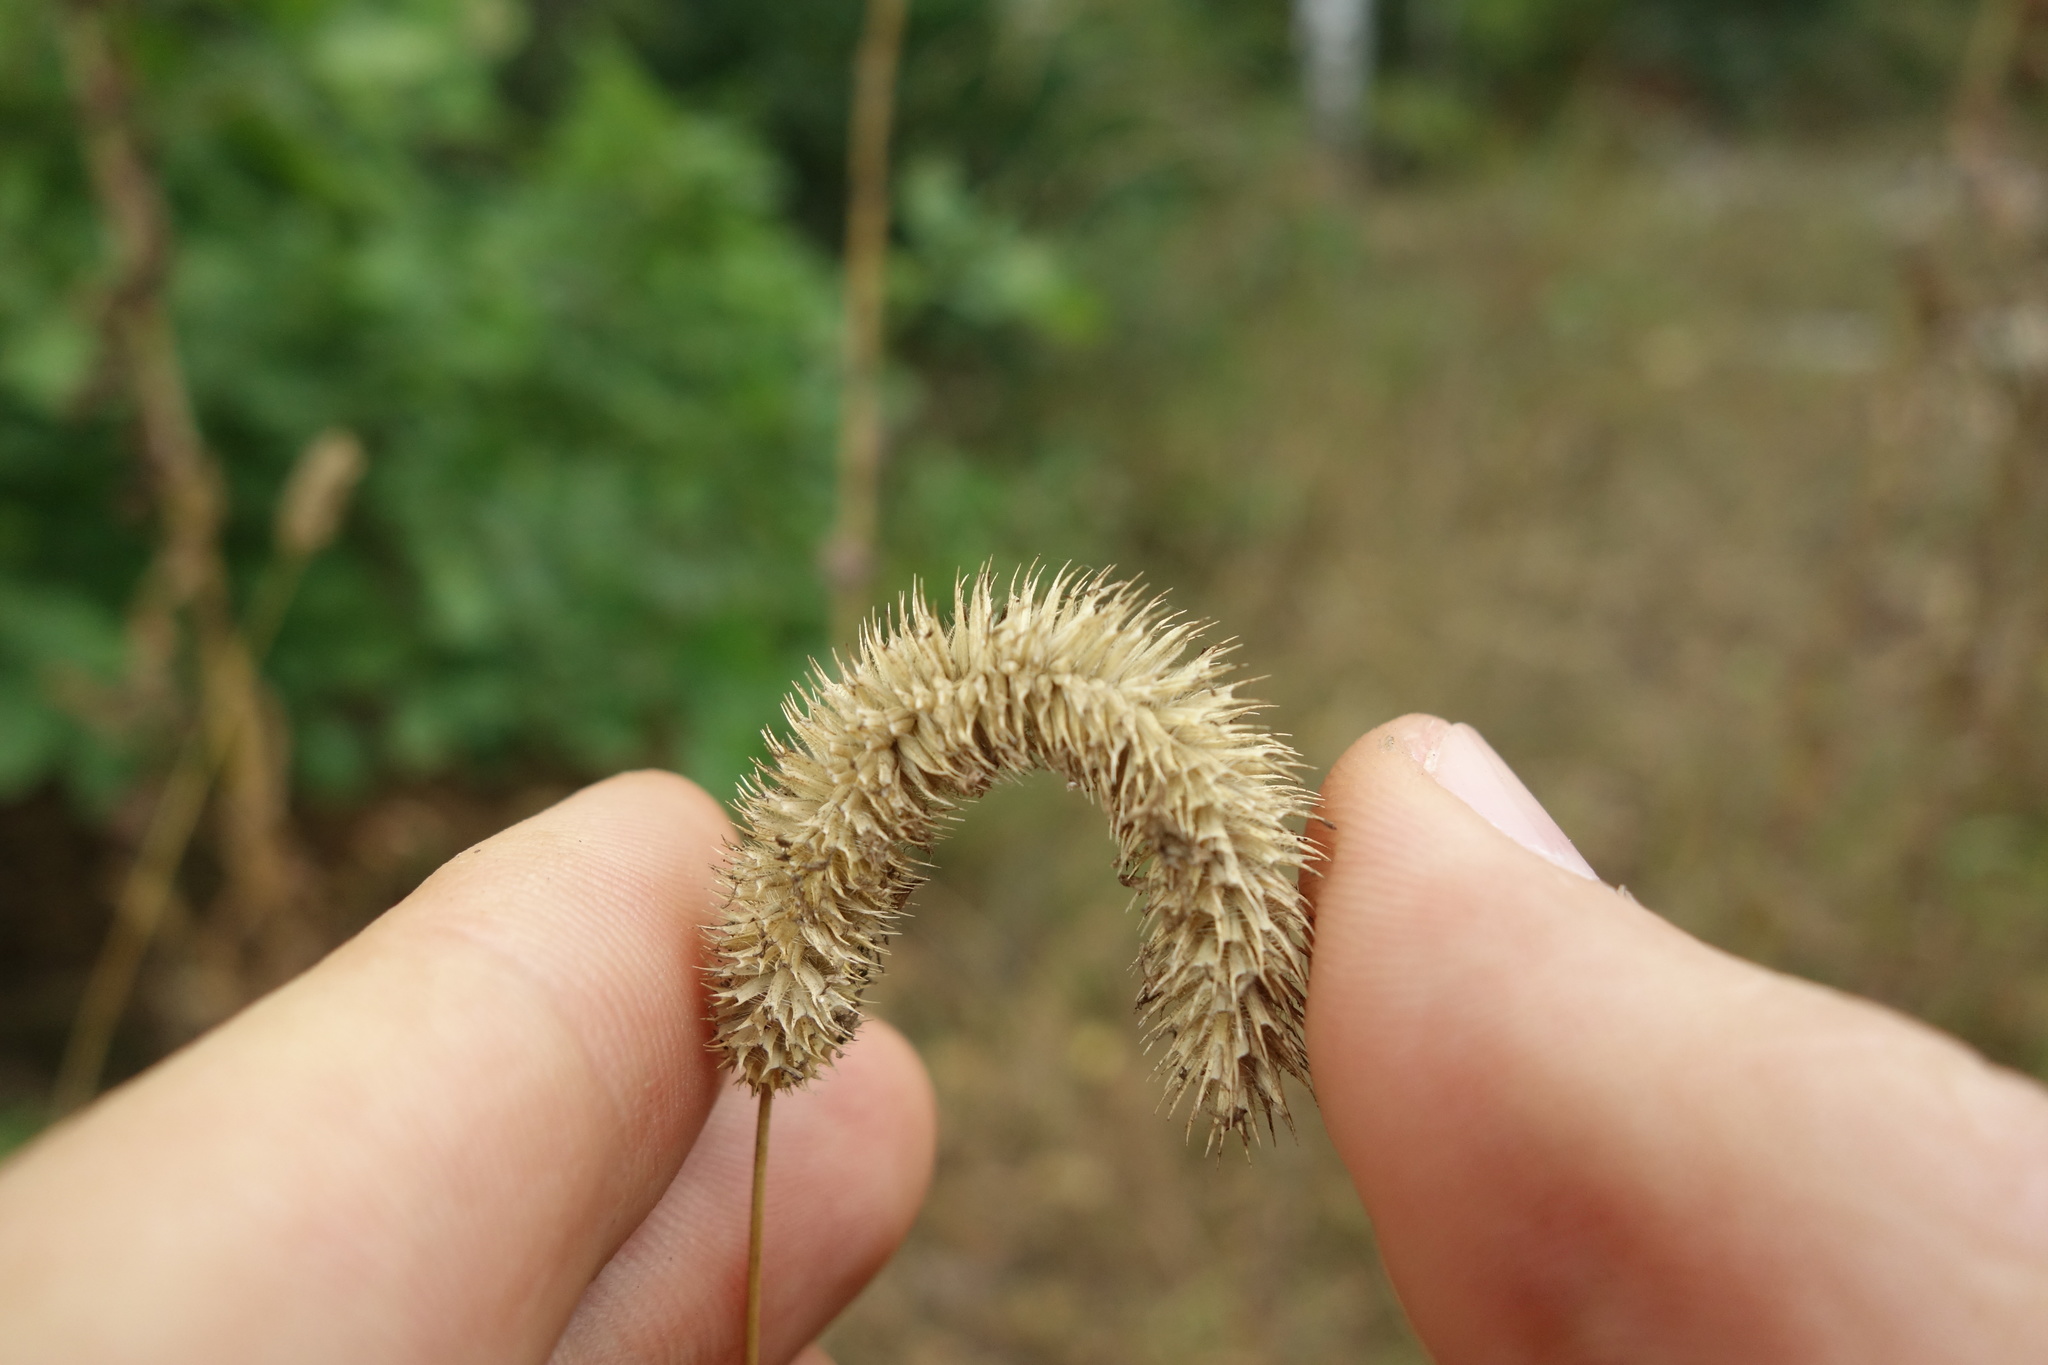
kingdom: Plantae
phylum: Tracheophyta
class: Liliopsida
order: Poales
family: Poaceae
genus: Phleum
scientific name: Phleum pratense
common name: Timothy grass
